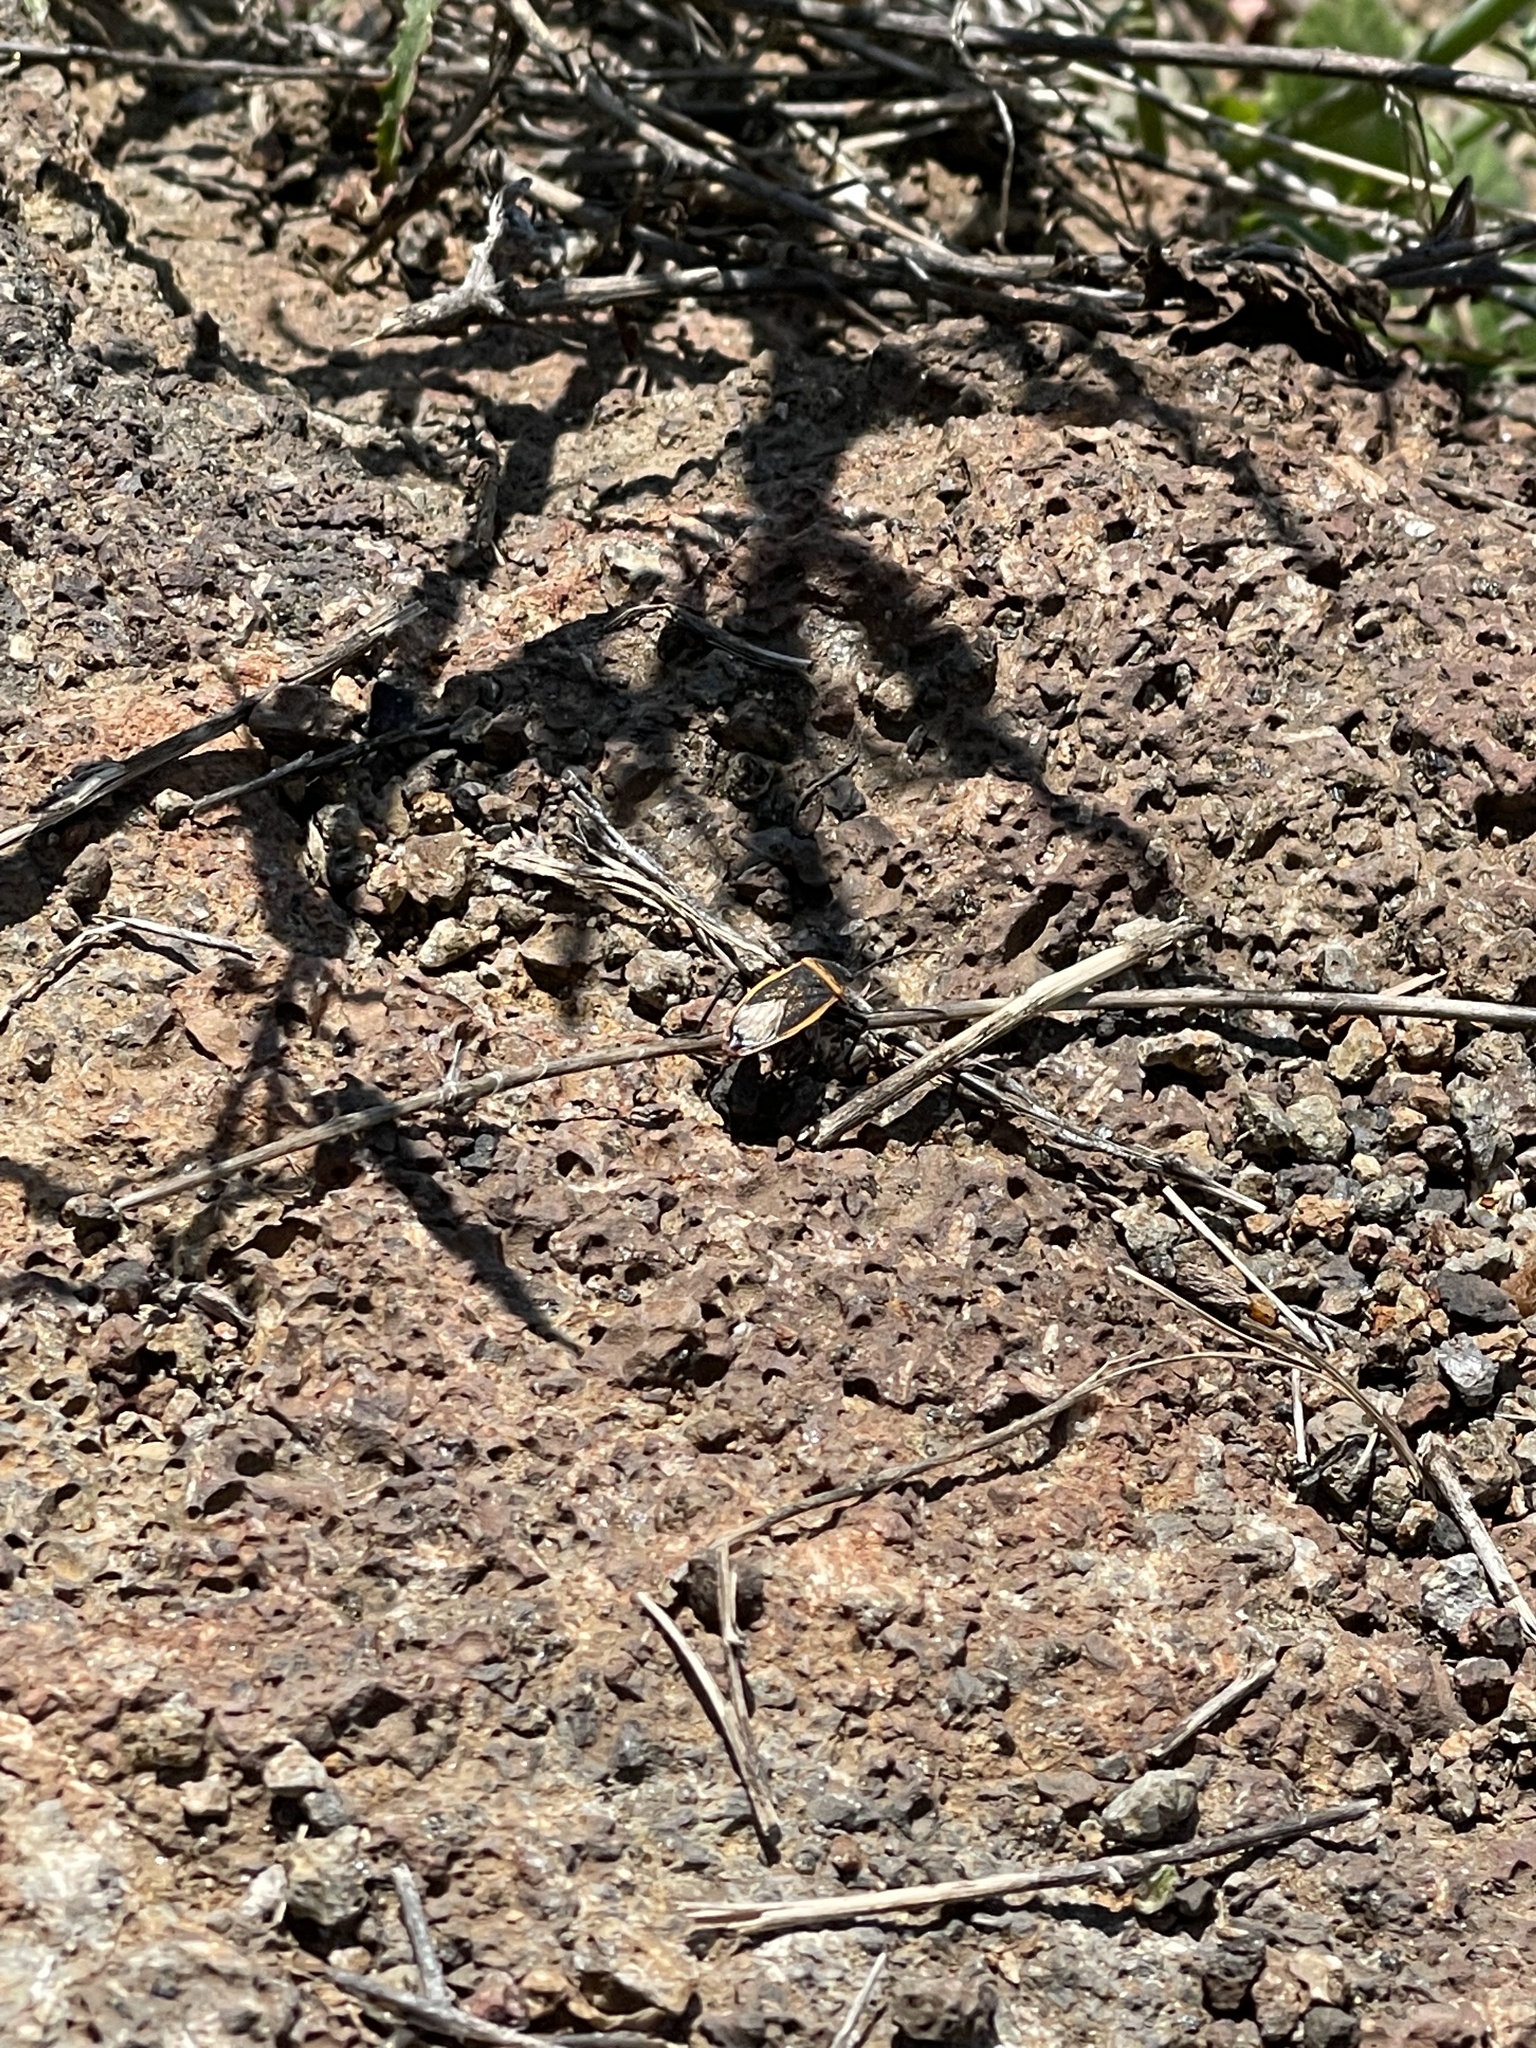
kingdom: Animalia
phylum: Arthropoda
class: Insecta
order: Hemiptera
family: Largidae
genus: Largus
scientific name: Largus californicus
